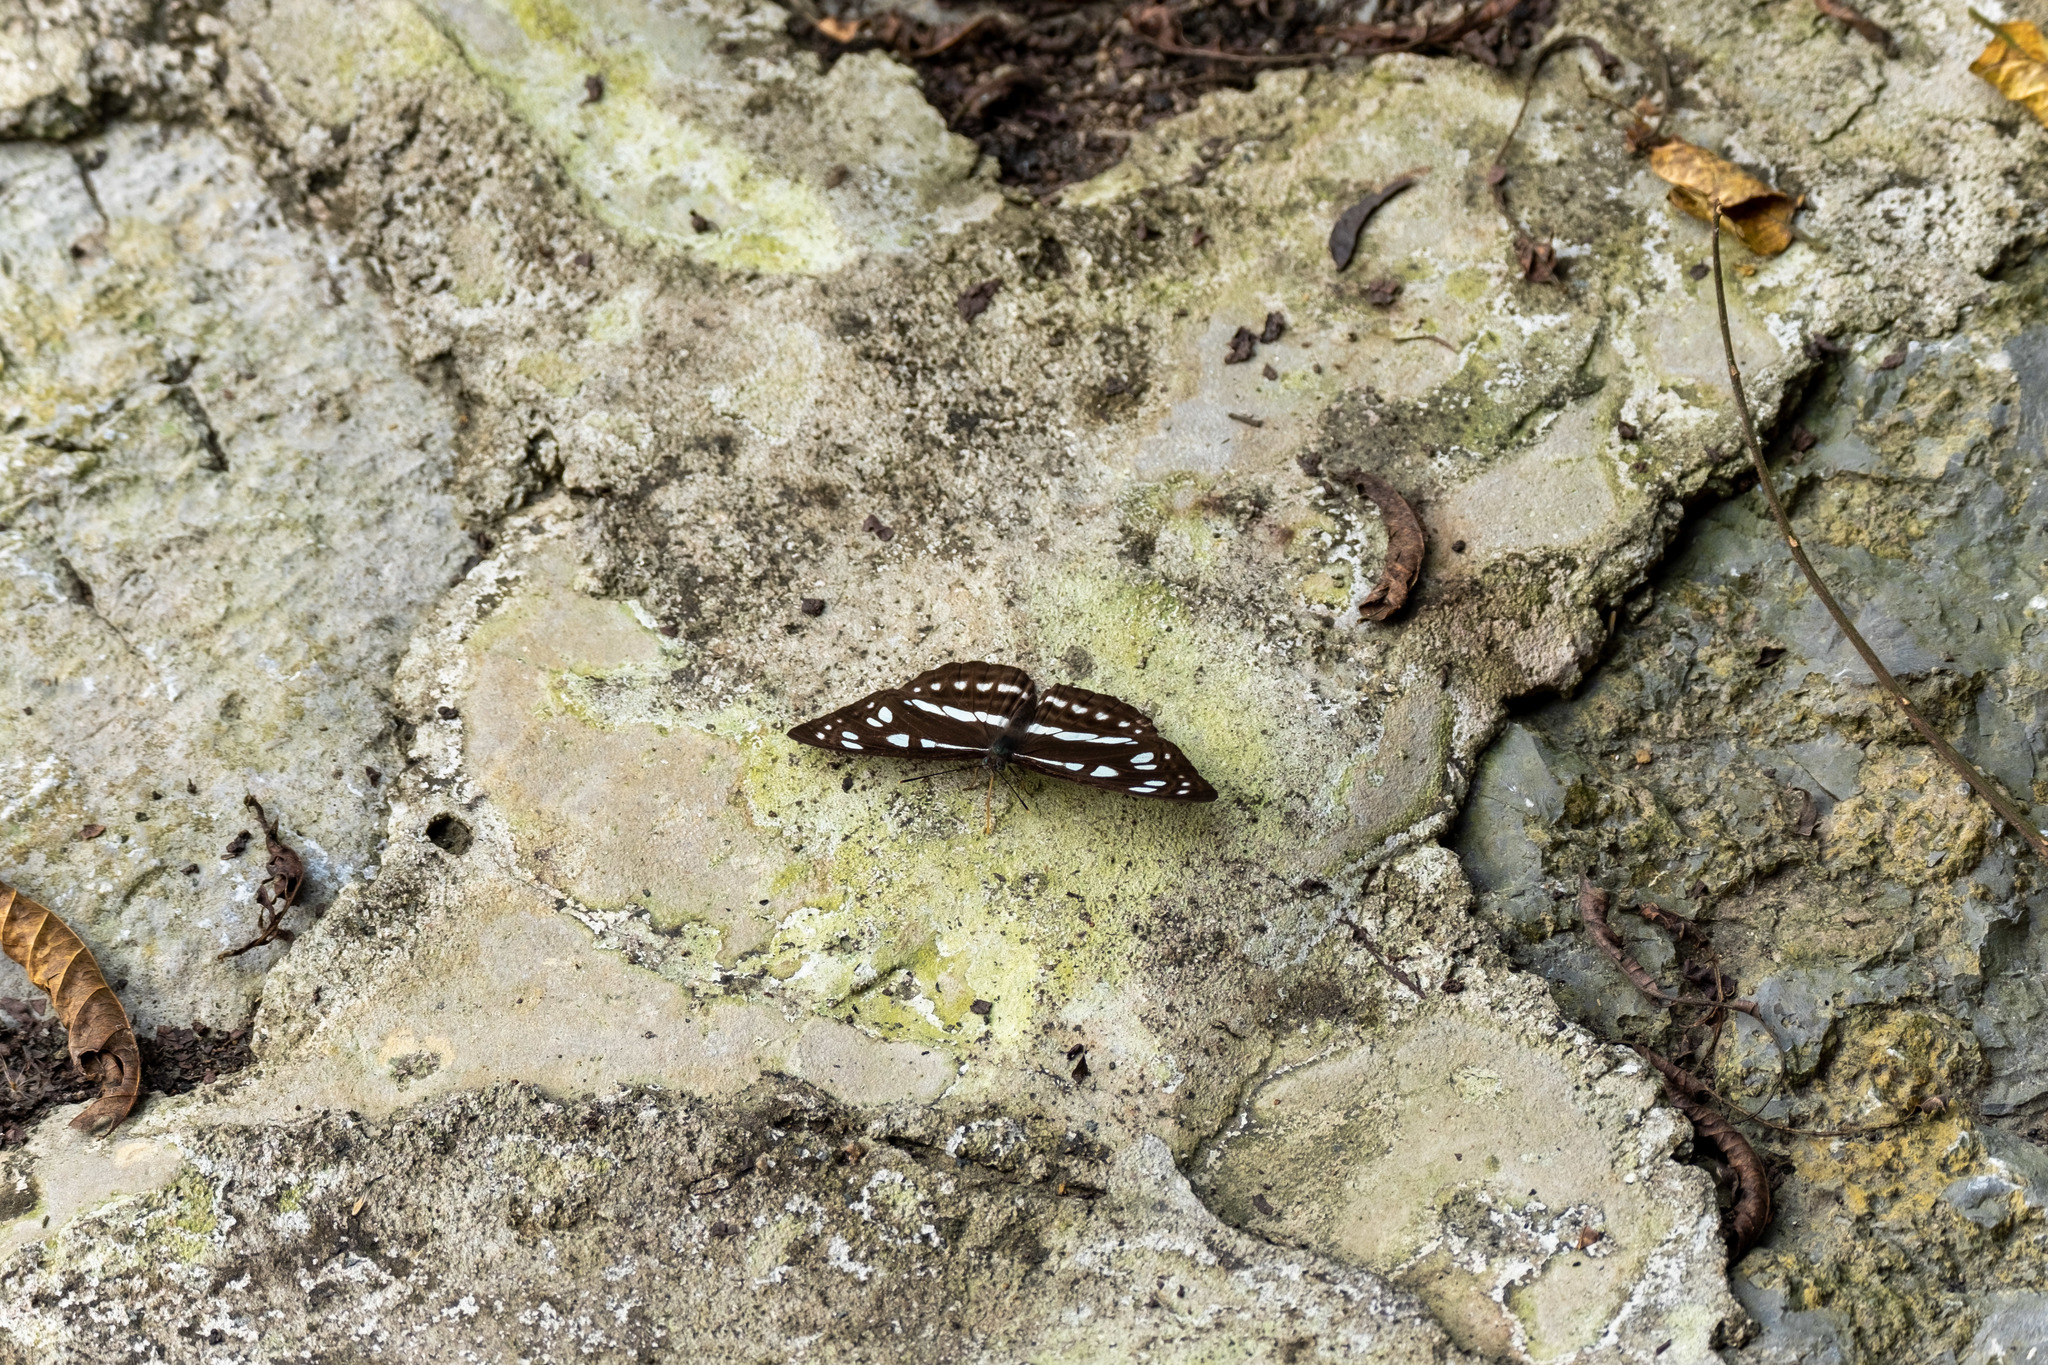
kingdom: Animalia
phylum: Arthropoda
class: Insecta
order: Lepidoptera
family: Nymphalidae
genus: Phaedyma
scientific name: Phaedyma columella
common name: Short banded sailer
